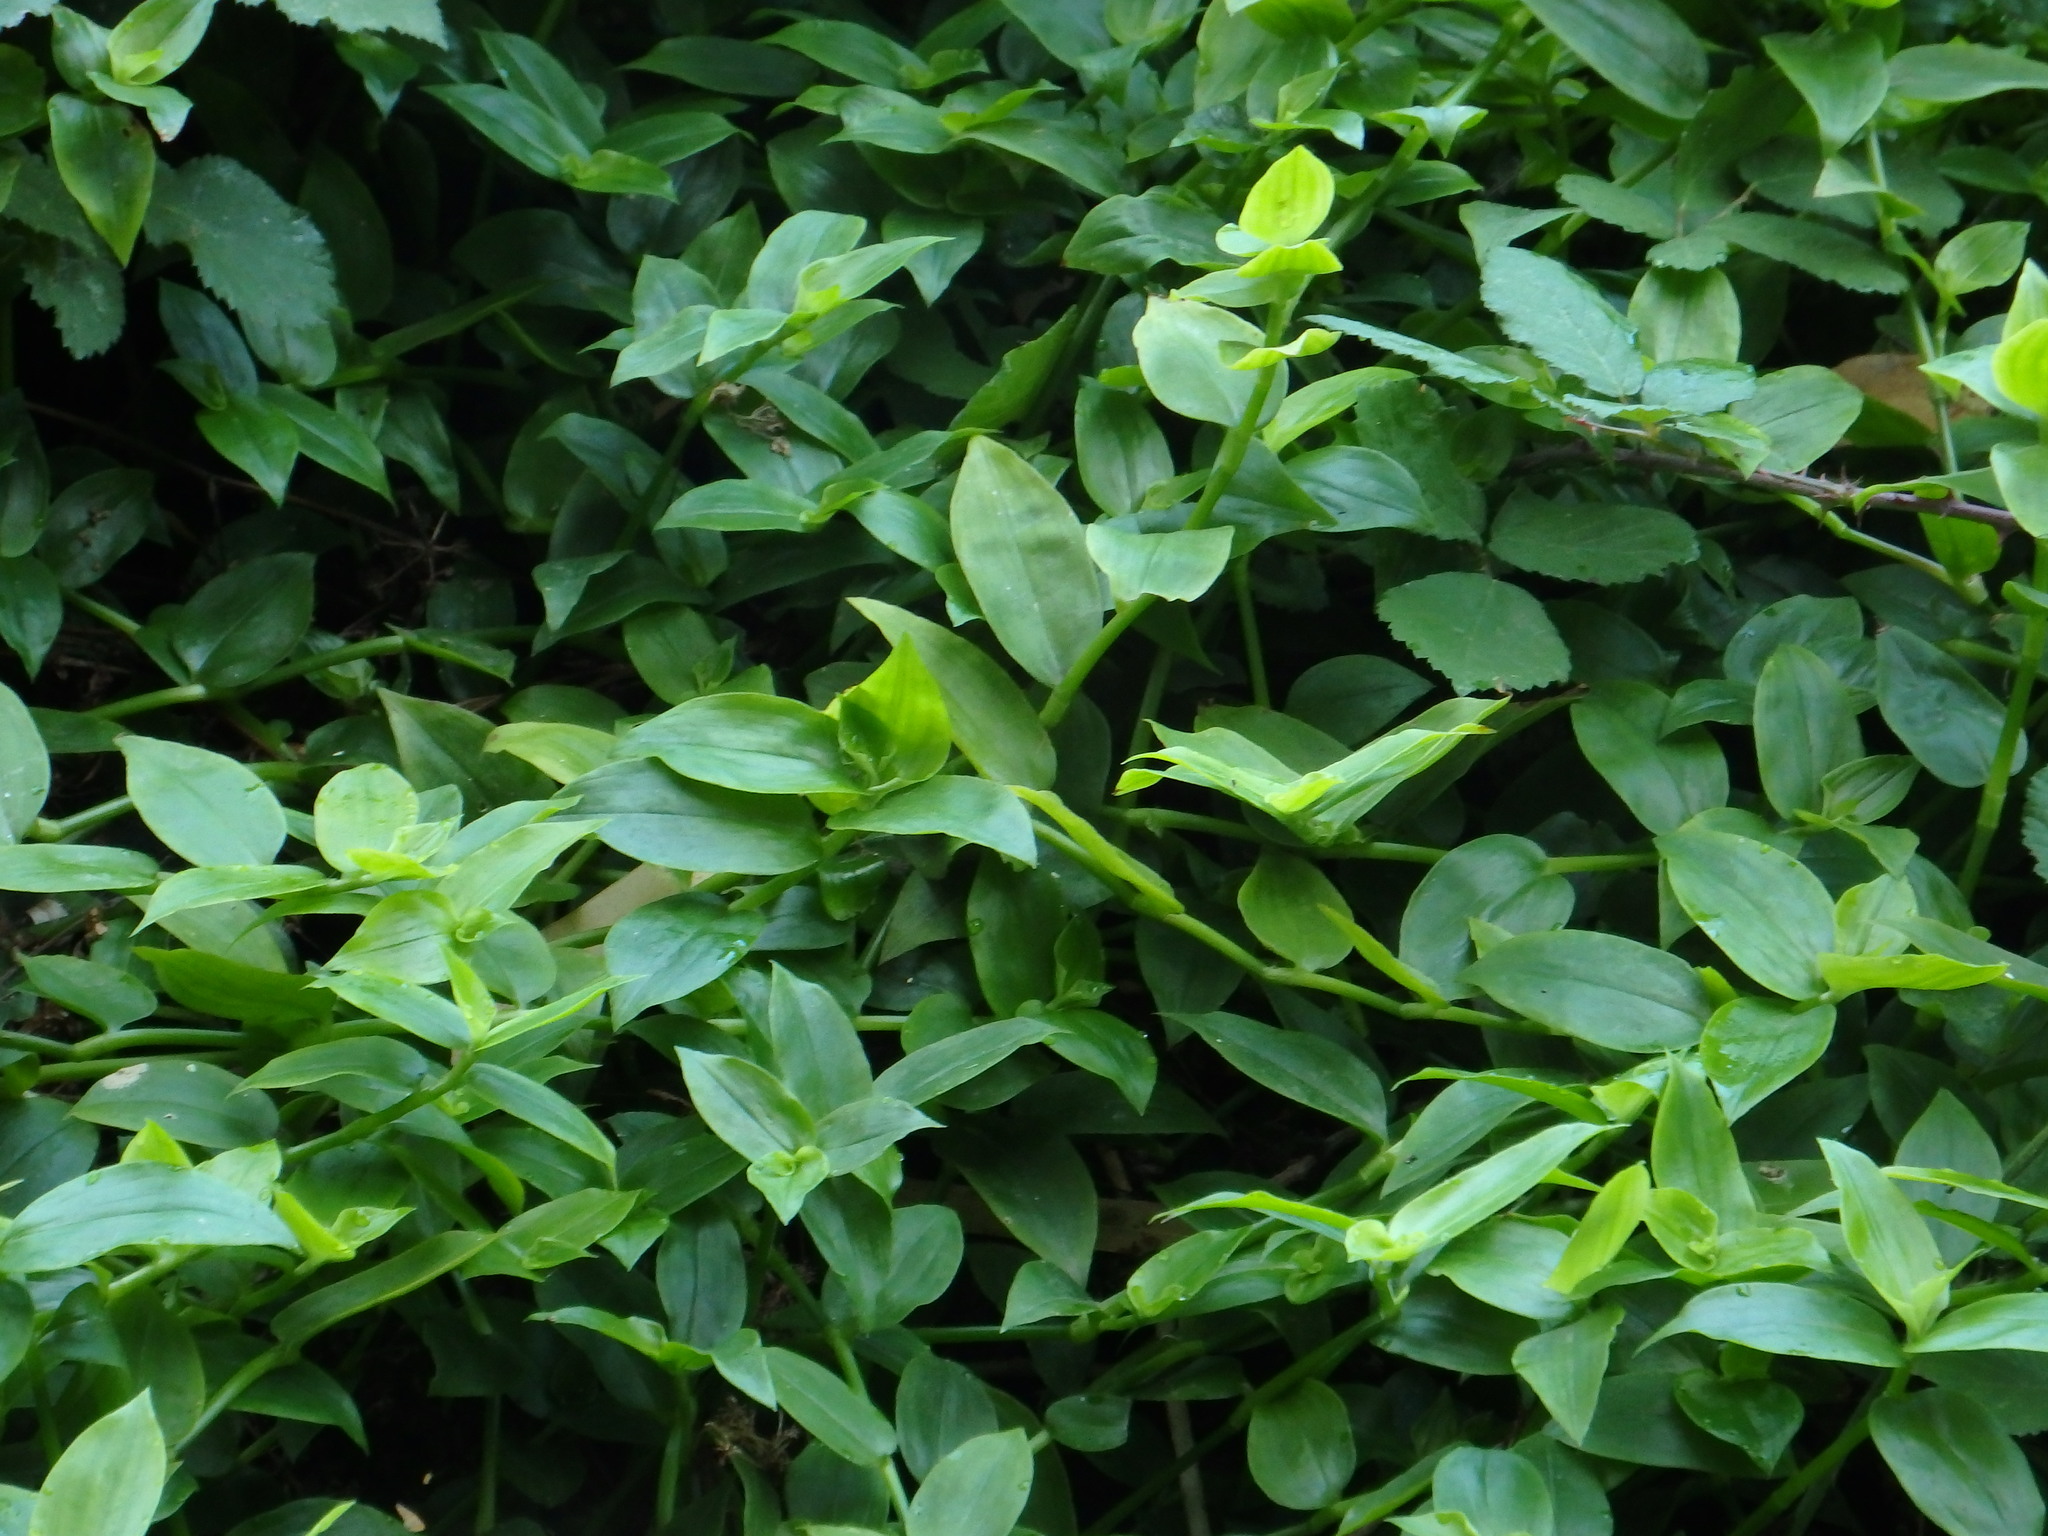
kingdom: Plantae
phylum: Tracheophyta
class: Liliopsida
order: Commelinales
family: Commelinaceae
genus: Tradescantia
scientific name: Tradescantia fluminensis
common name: Wandering-jew
